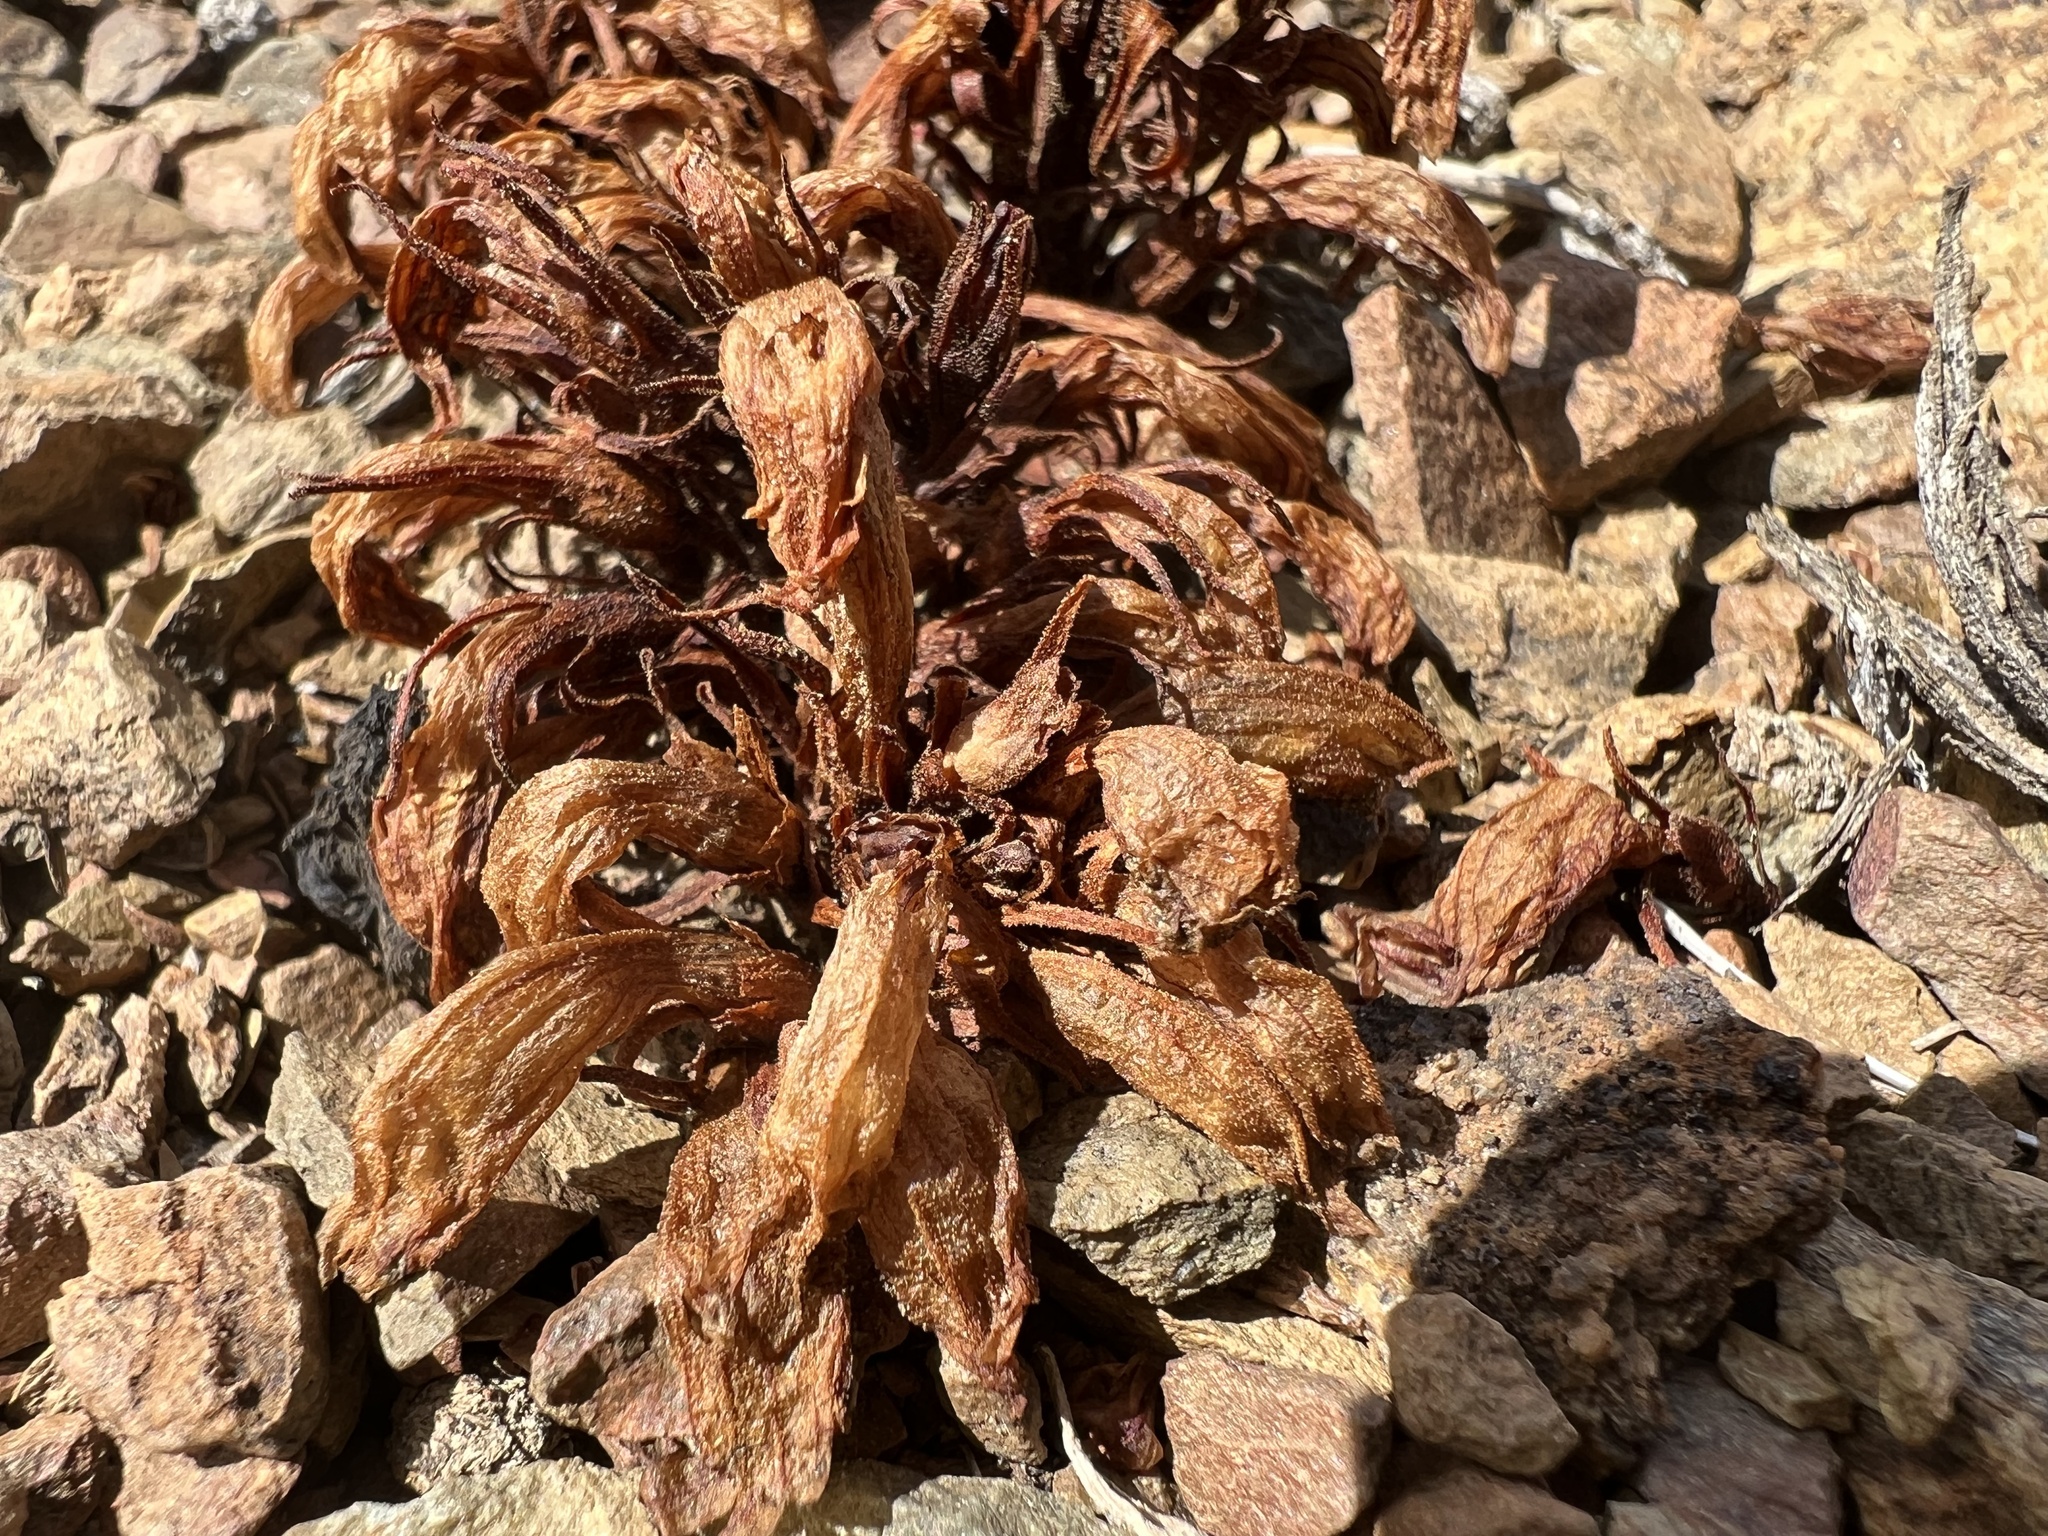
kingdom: Plantae
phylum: Tracheophyta
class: Magnoliopsida
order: Lamiales
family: Orobanchaceae
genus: Aphyllon
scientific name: Aphyllon corymbosum
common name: Flat-top broomrape
